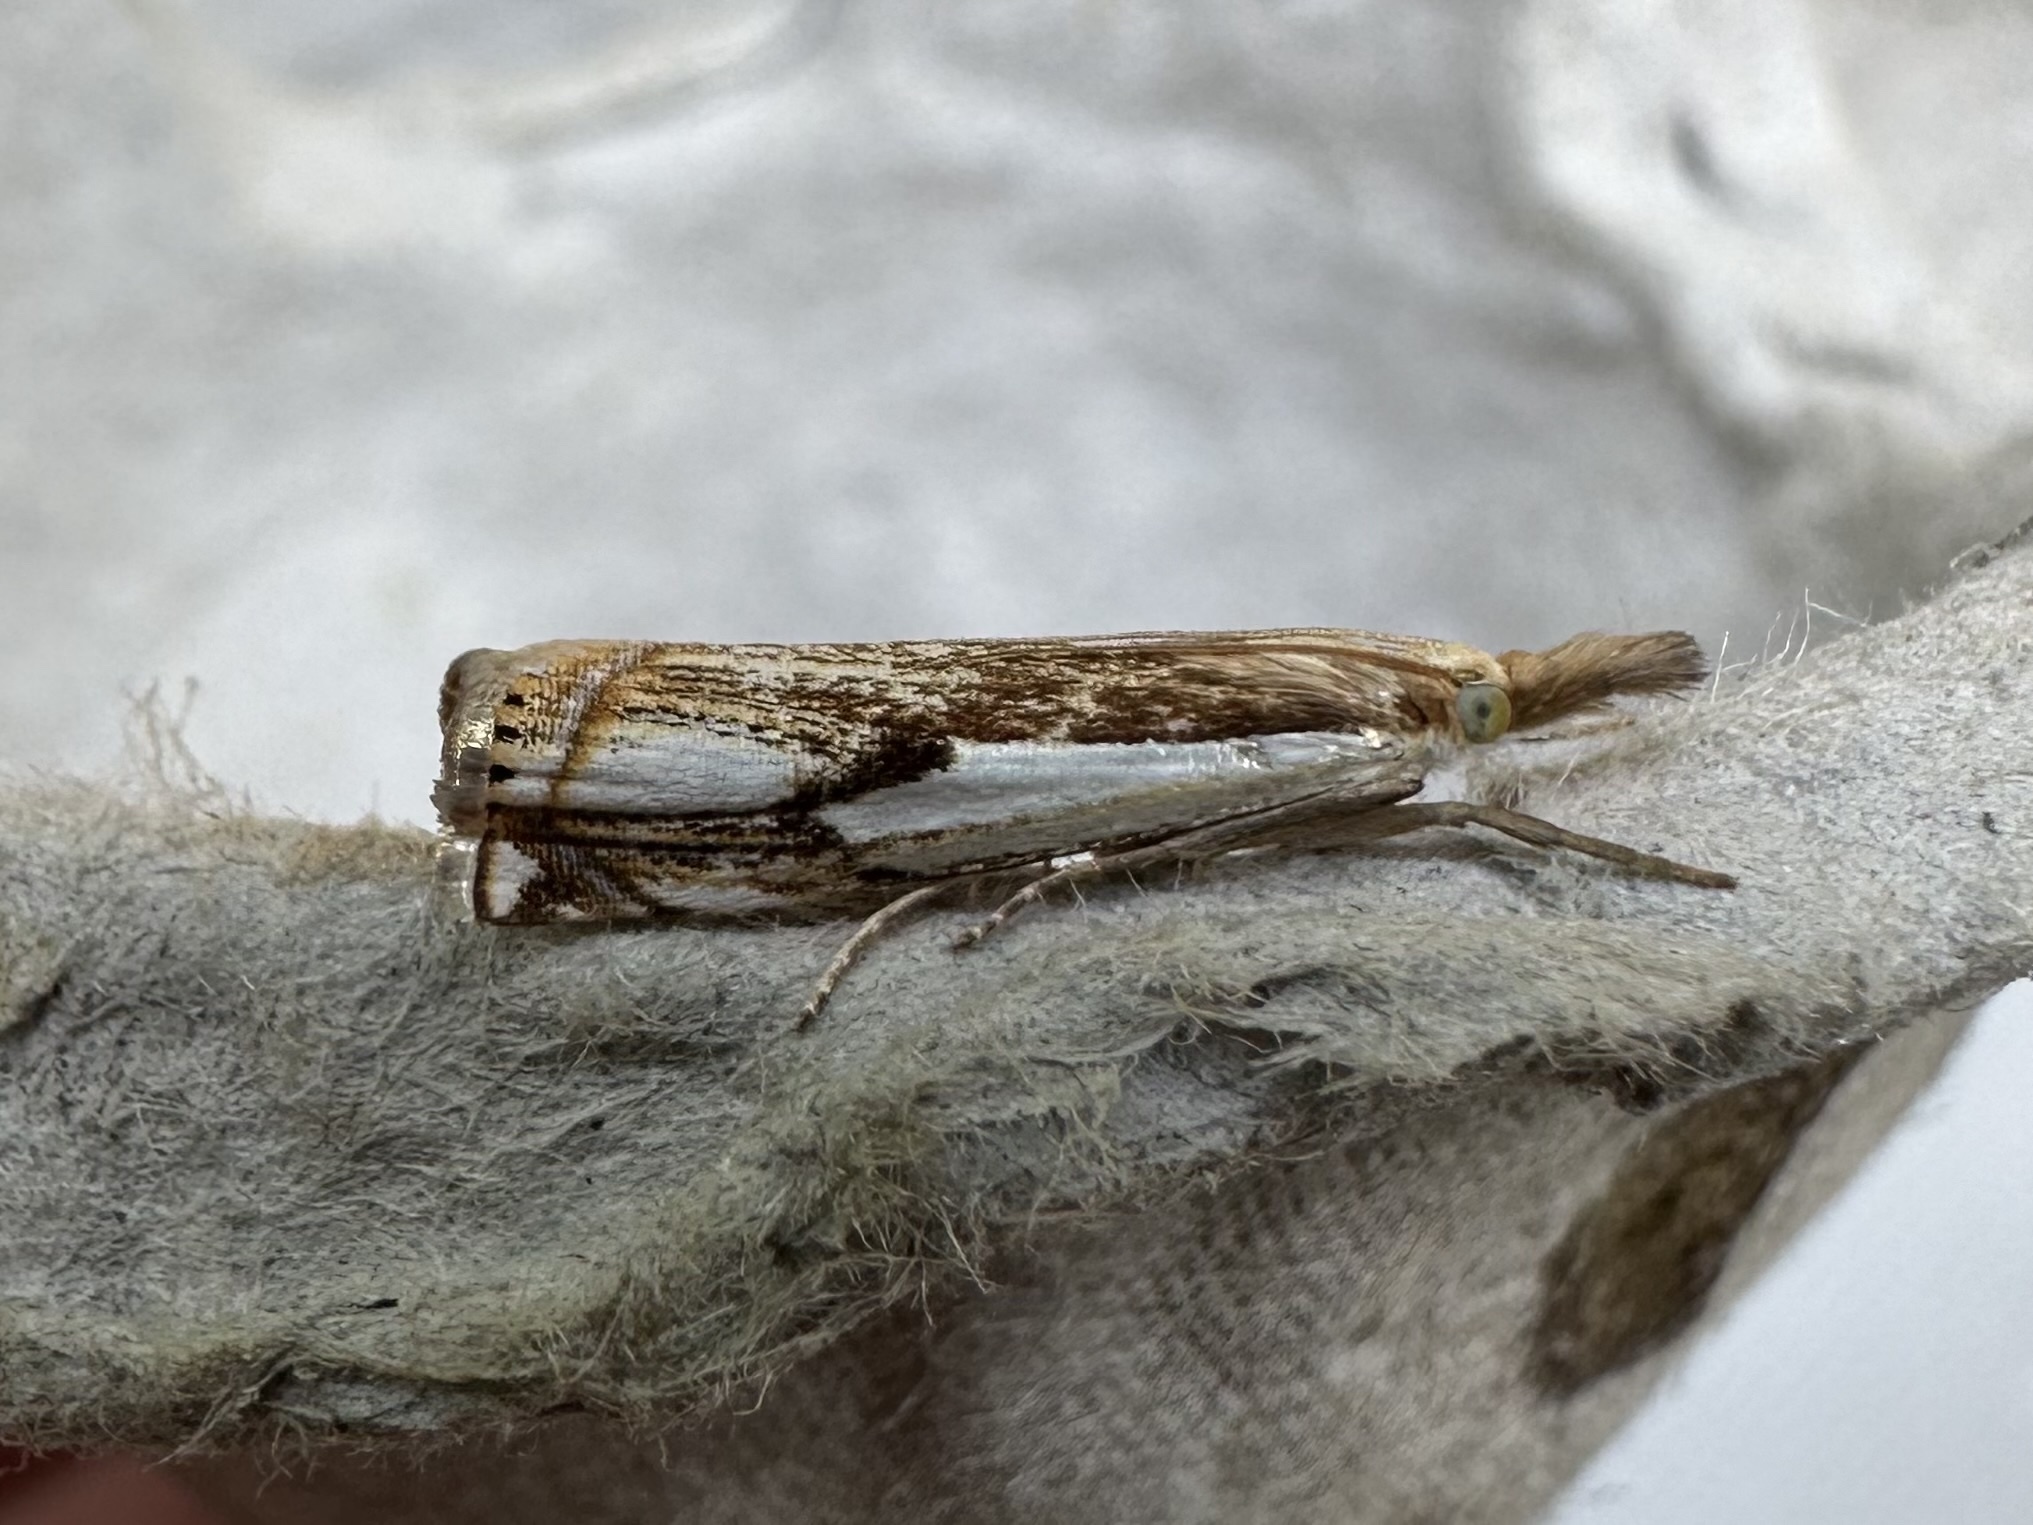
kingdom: Animalia
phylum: Arthropoda
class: Insecta
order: Lepidoptera
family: Crambidae
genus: Crambus
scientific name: Crambus agitatellus
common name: Double-banded grass-veneer
